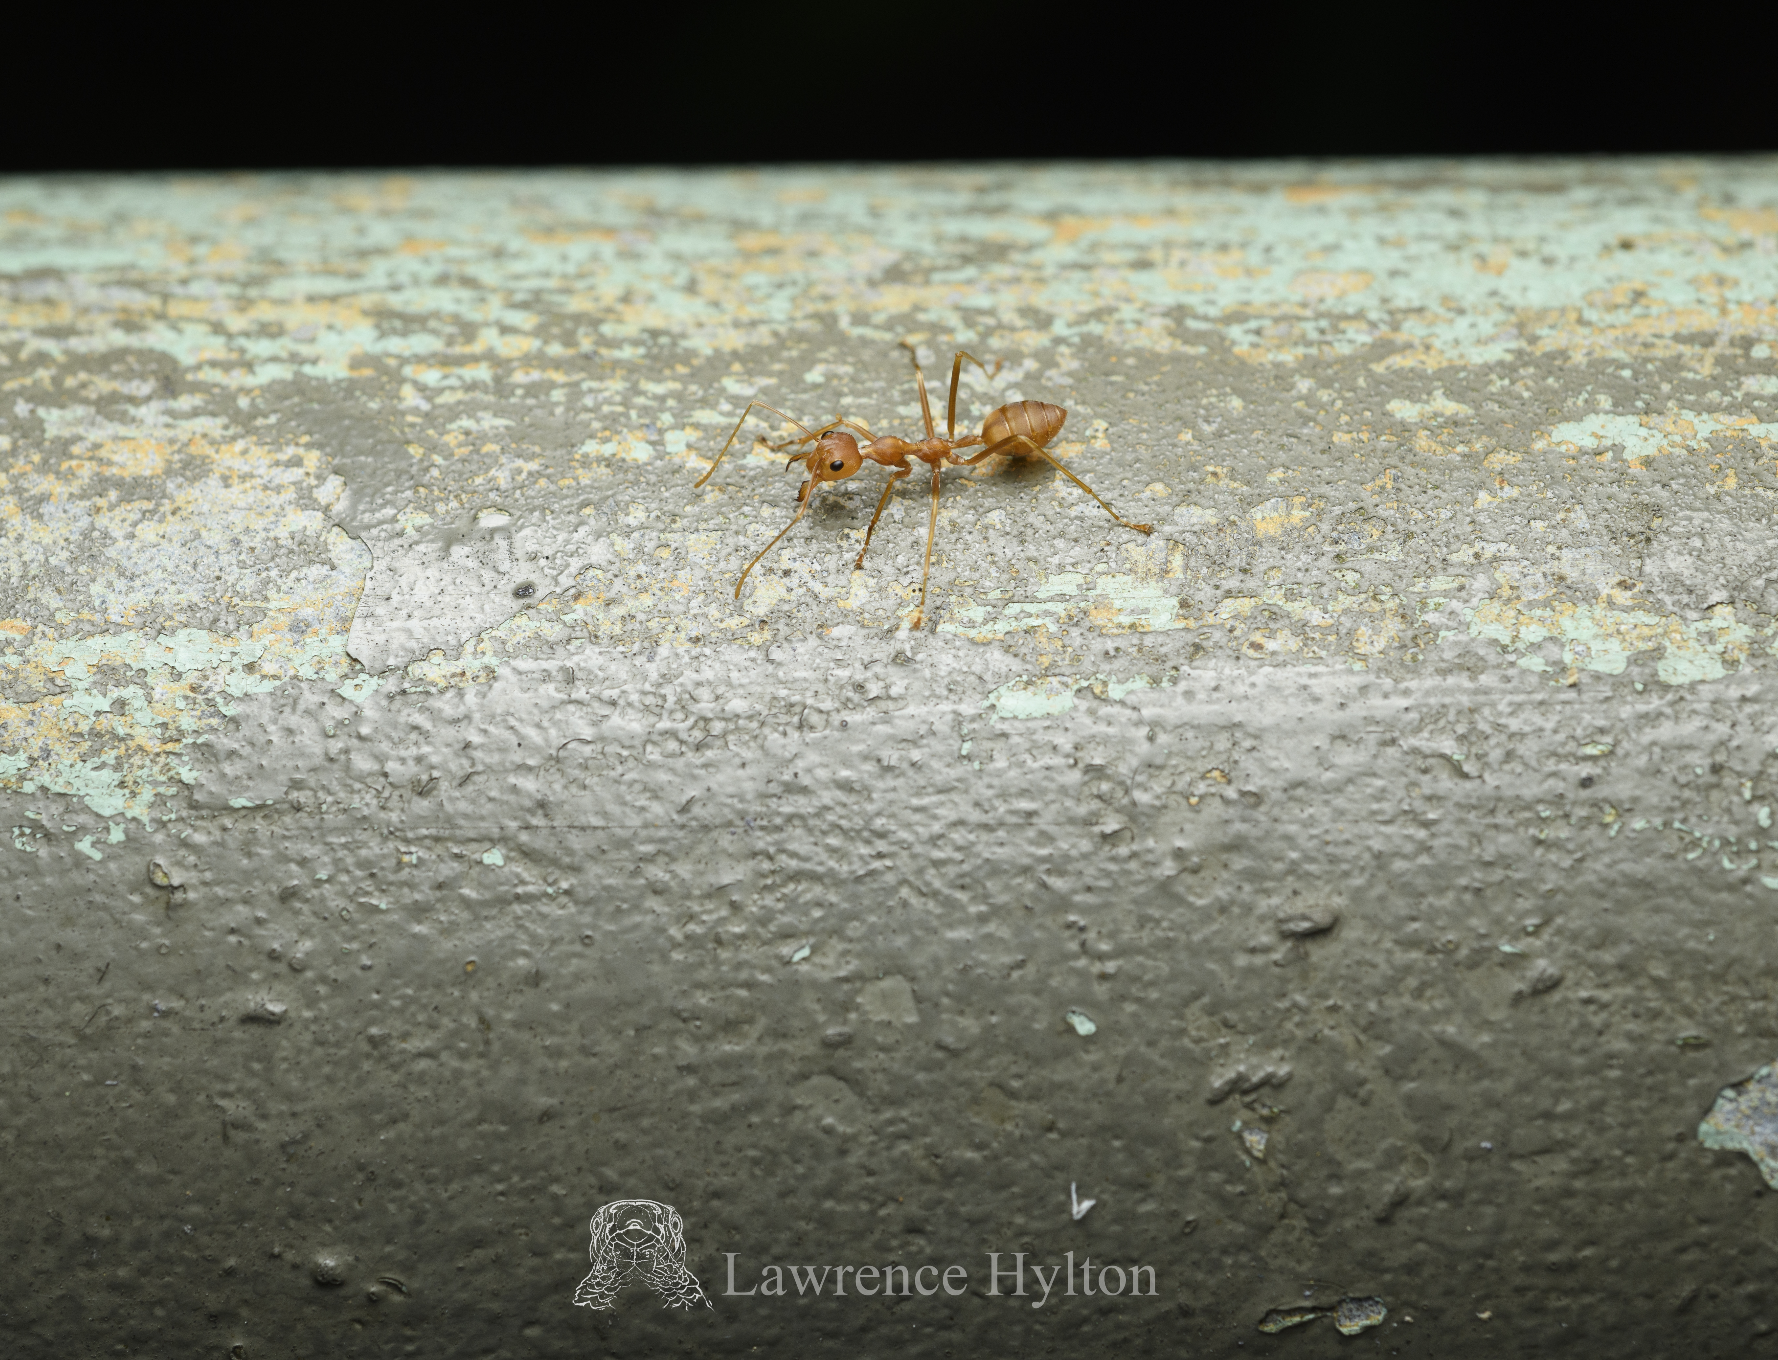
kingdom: Animalia
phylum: Arthropoda
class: Insecta
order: Hymenoptera
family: Formicidae
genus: Oecophylla
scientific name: Oecophylla smaragdina
